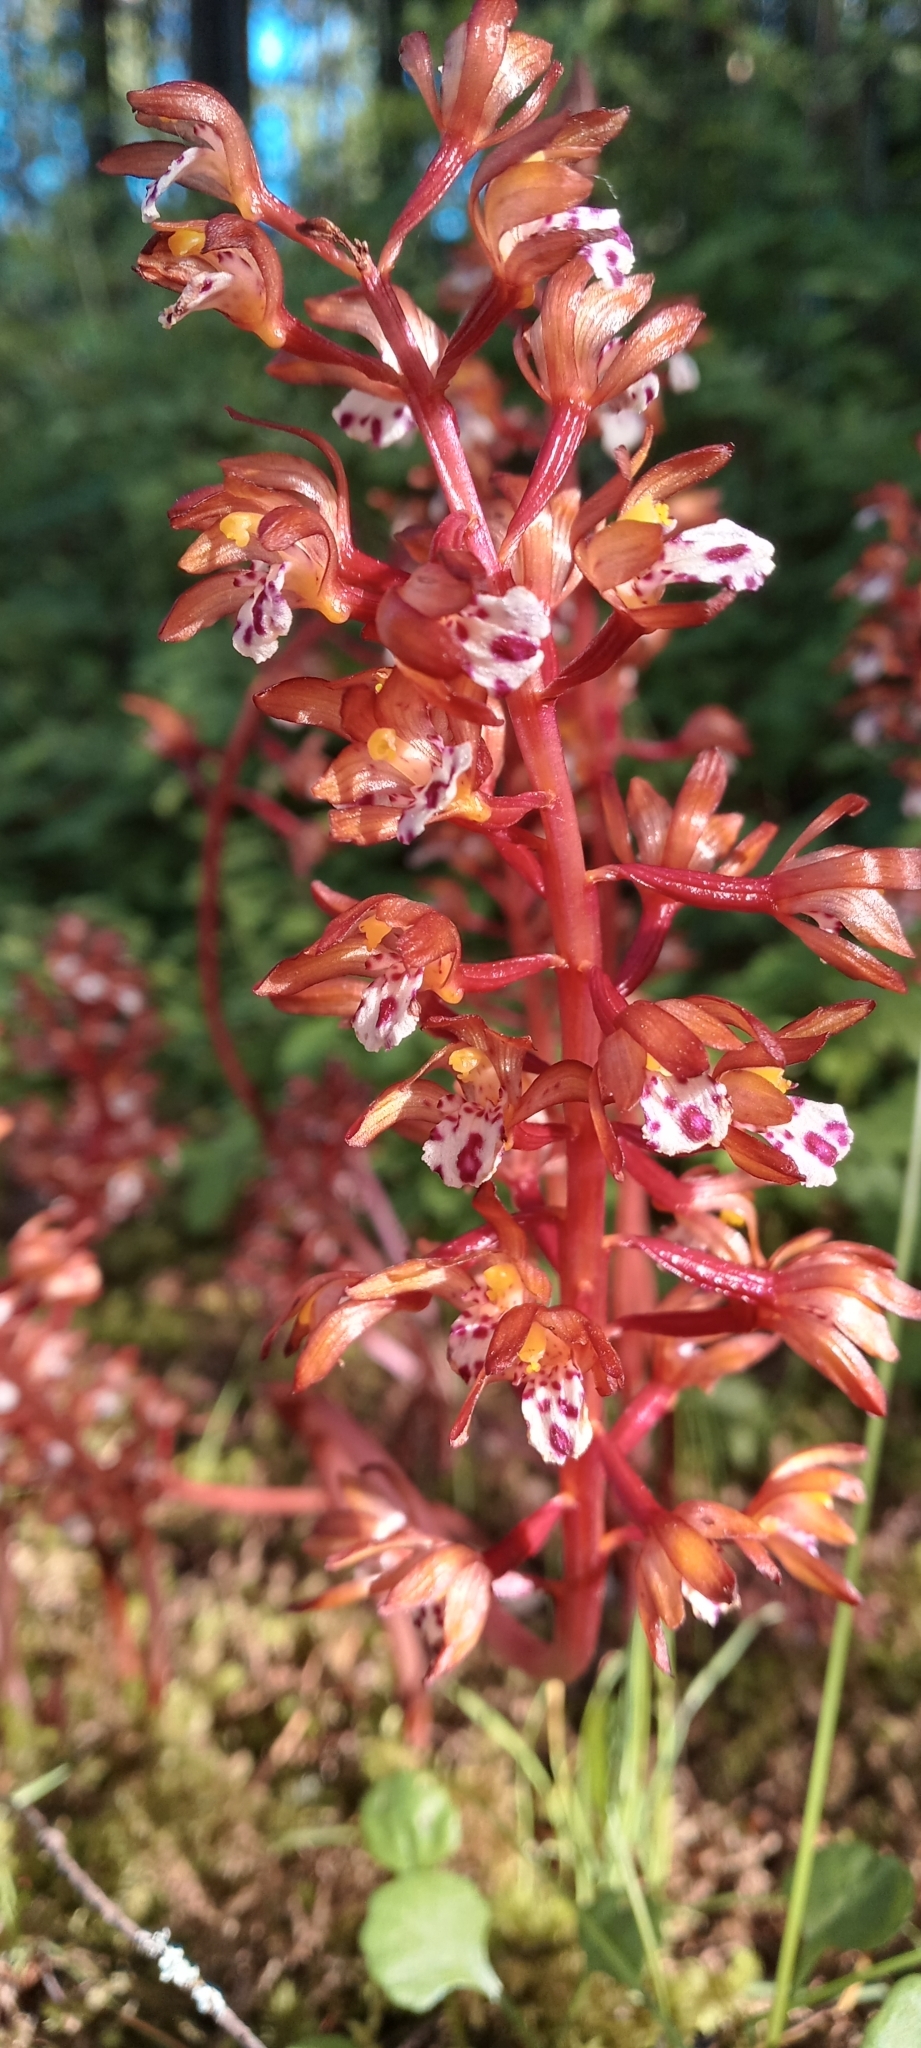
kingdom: Plantae
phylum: Tracheophyta
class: Liliopsida
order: Asparagales
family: Orchidaceae
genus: Corallorhiza
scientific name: Corallorhiza maculata
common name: Spotted coralroot
